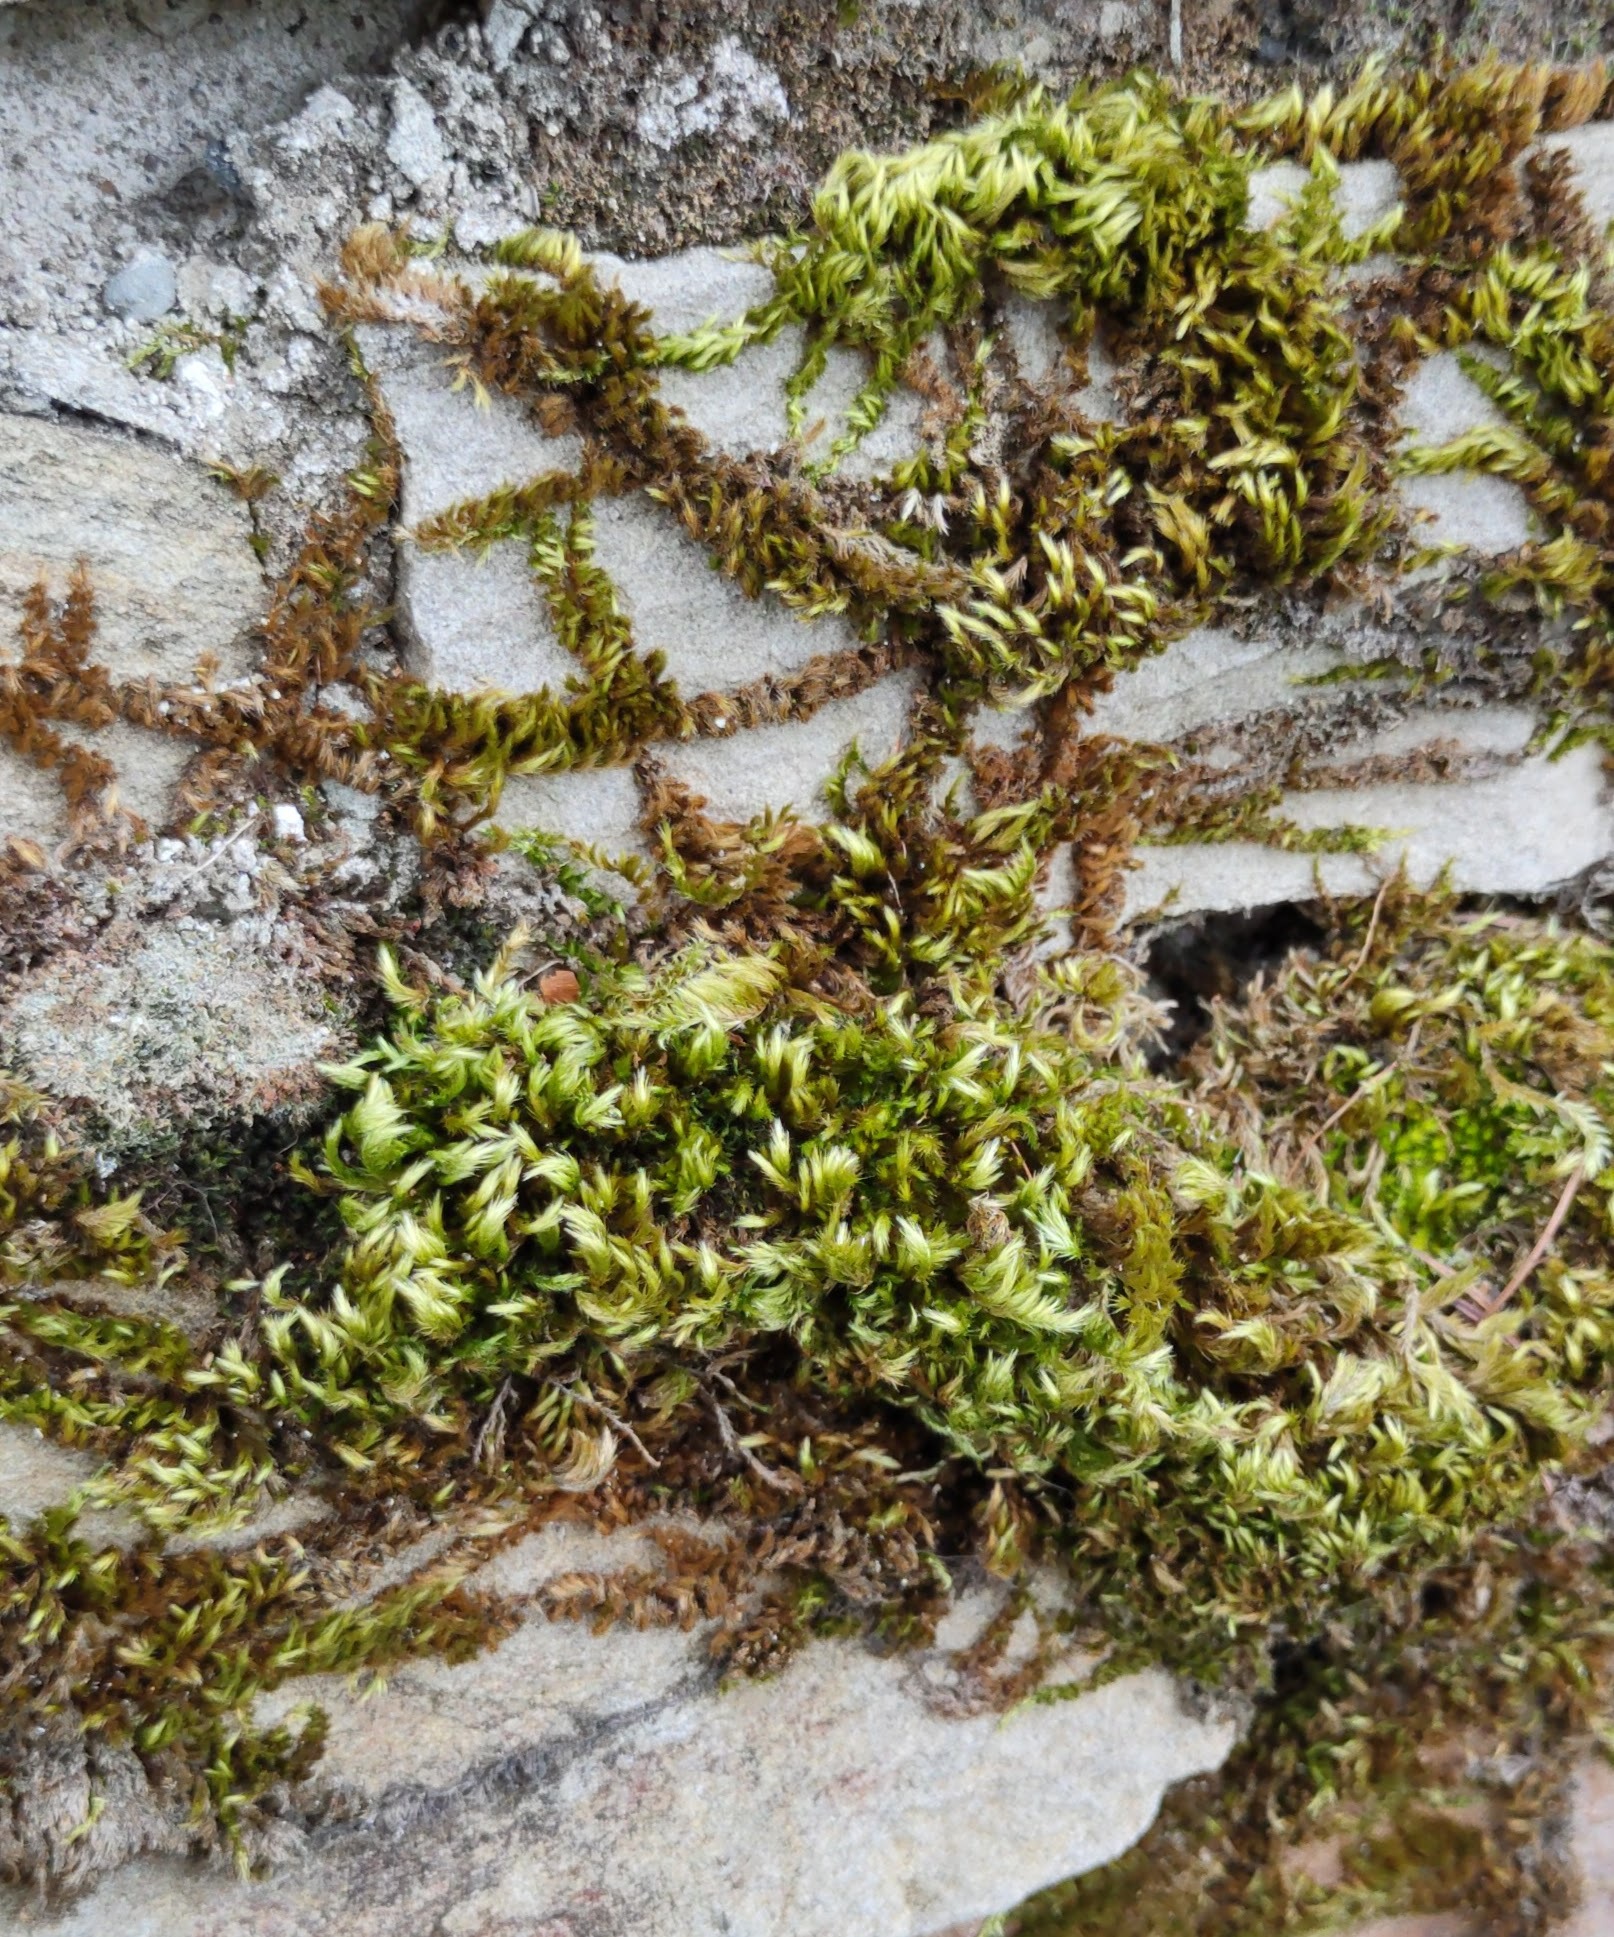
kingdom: Plantae
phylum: Bryophyta
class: Bryopsida
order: Hypnales
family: Brachytheciaceae
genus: Homalothecium
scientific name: Homalothecium sericeum
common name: Silky wall feather-moss
